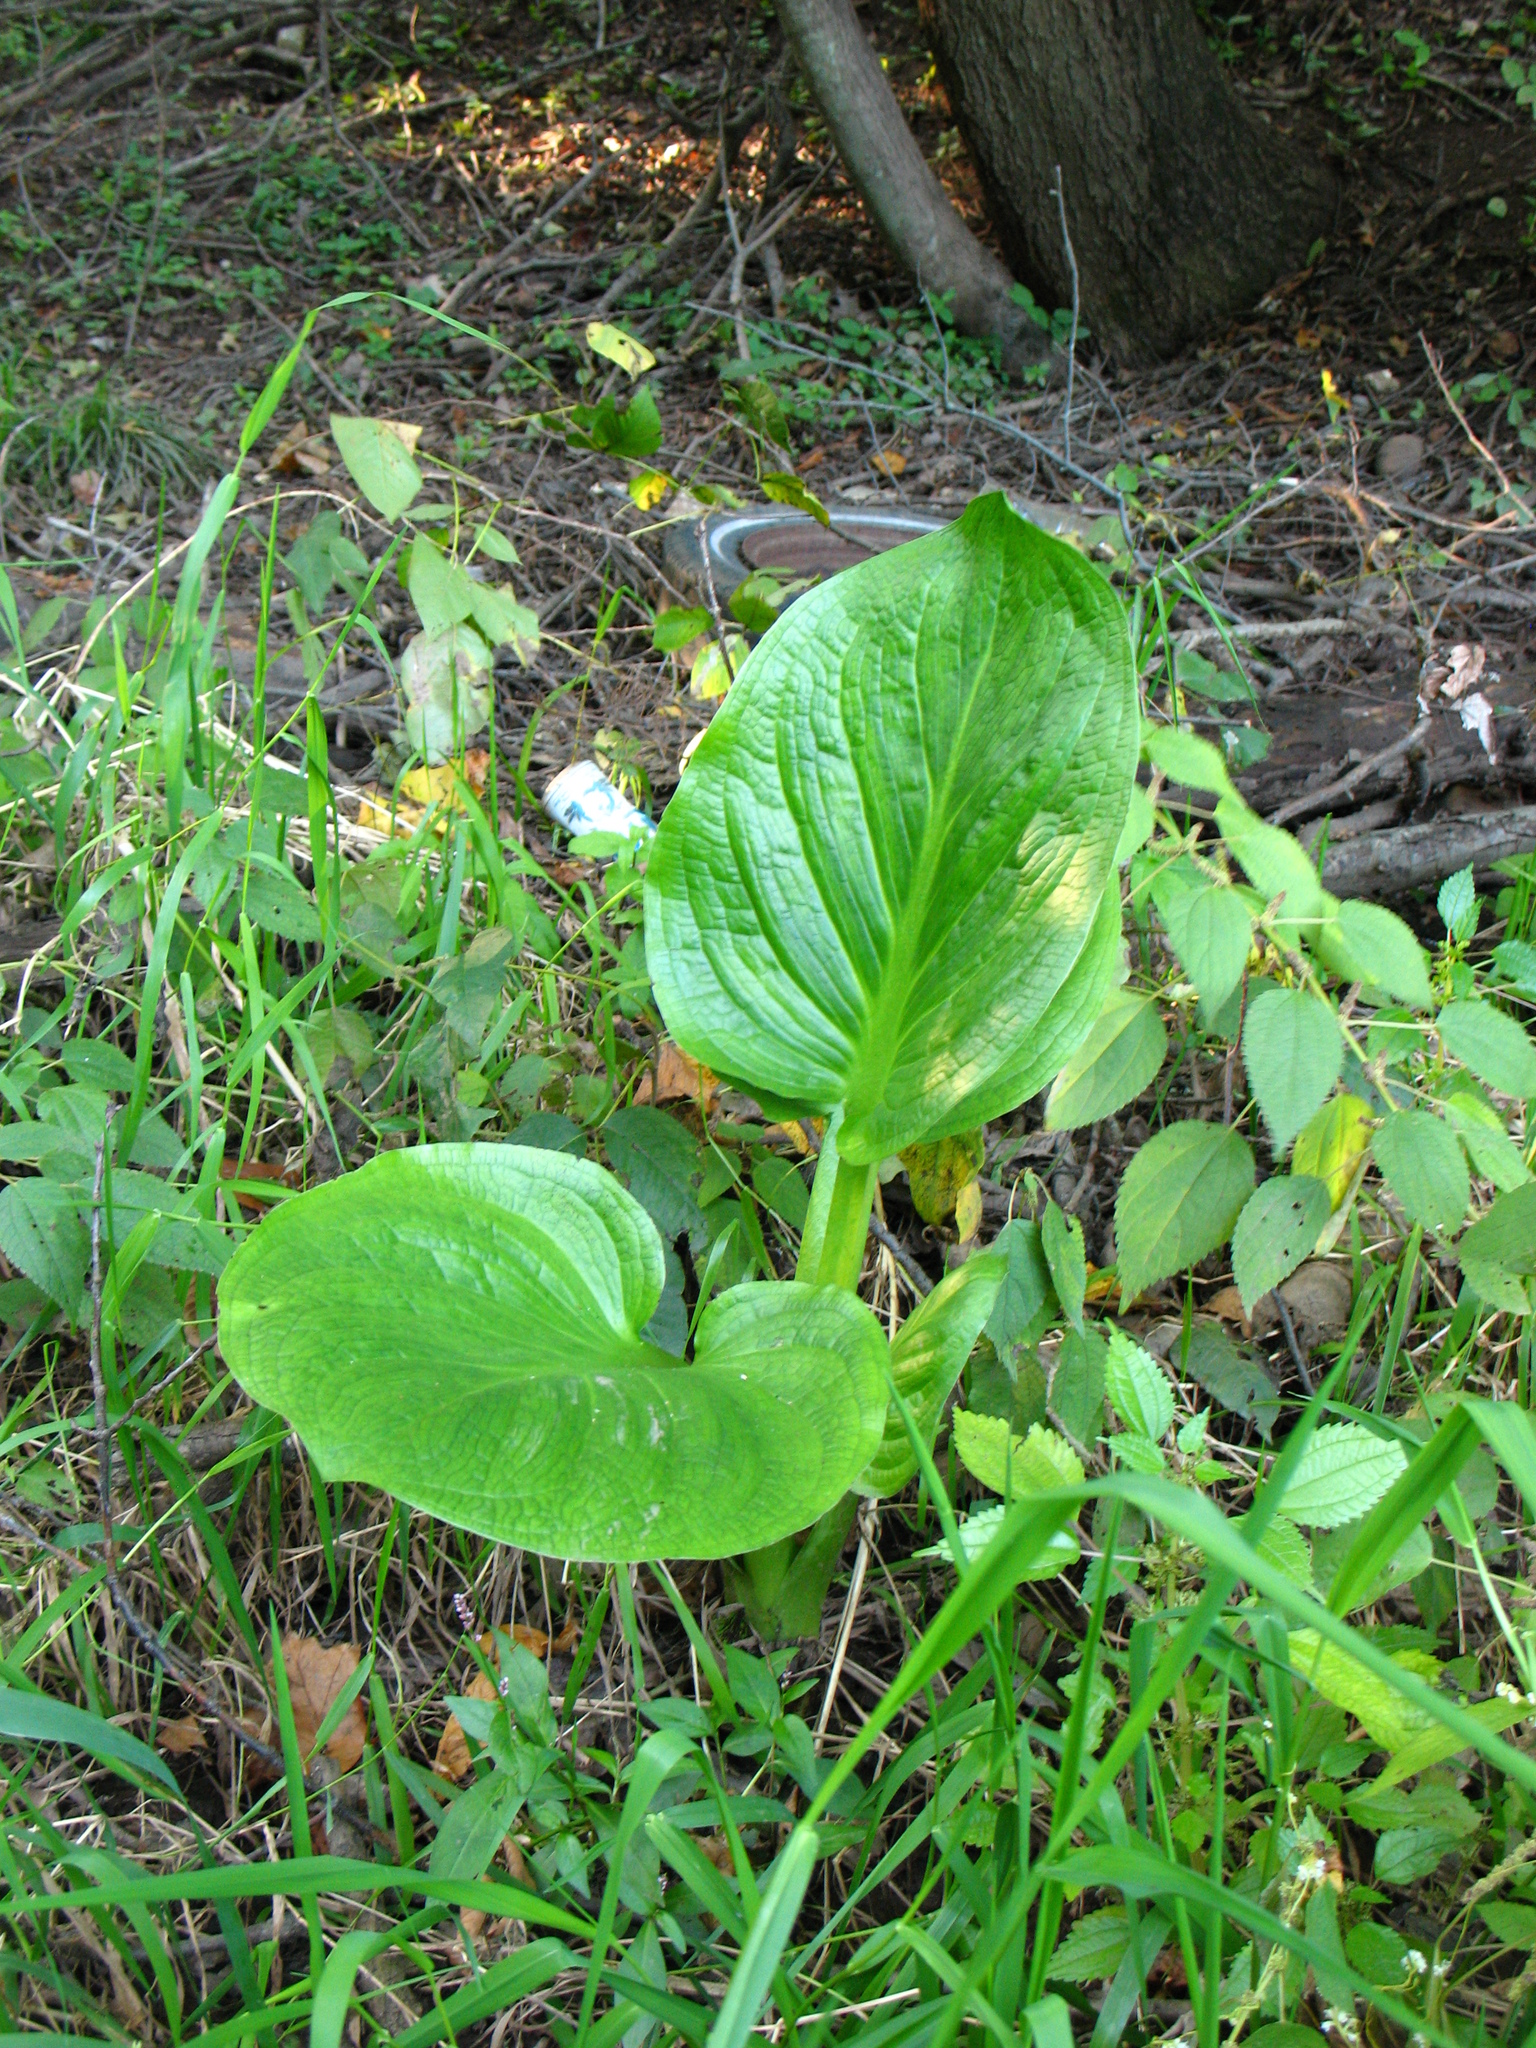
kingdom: Plantae
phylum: Tracheophyta
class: Liliopsida
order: Alismatales
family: Araceae
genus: Symplocarpus
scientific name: Symplocarpus foetidus
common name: Eastern skunk cabbage
